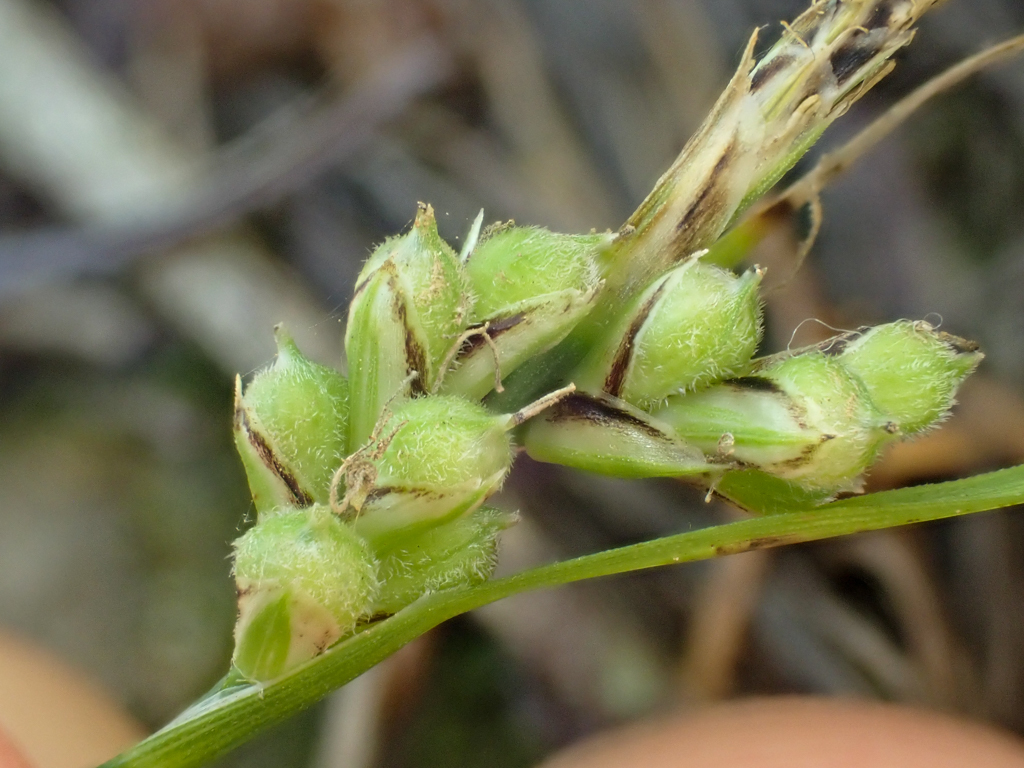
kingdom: Plantae
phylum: Tracheophyta
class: Liliopsida
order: Poales
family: Cyperaceae
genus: Carex
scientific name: Carex globosa
